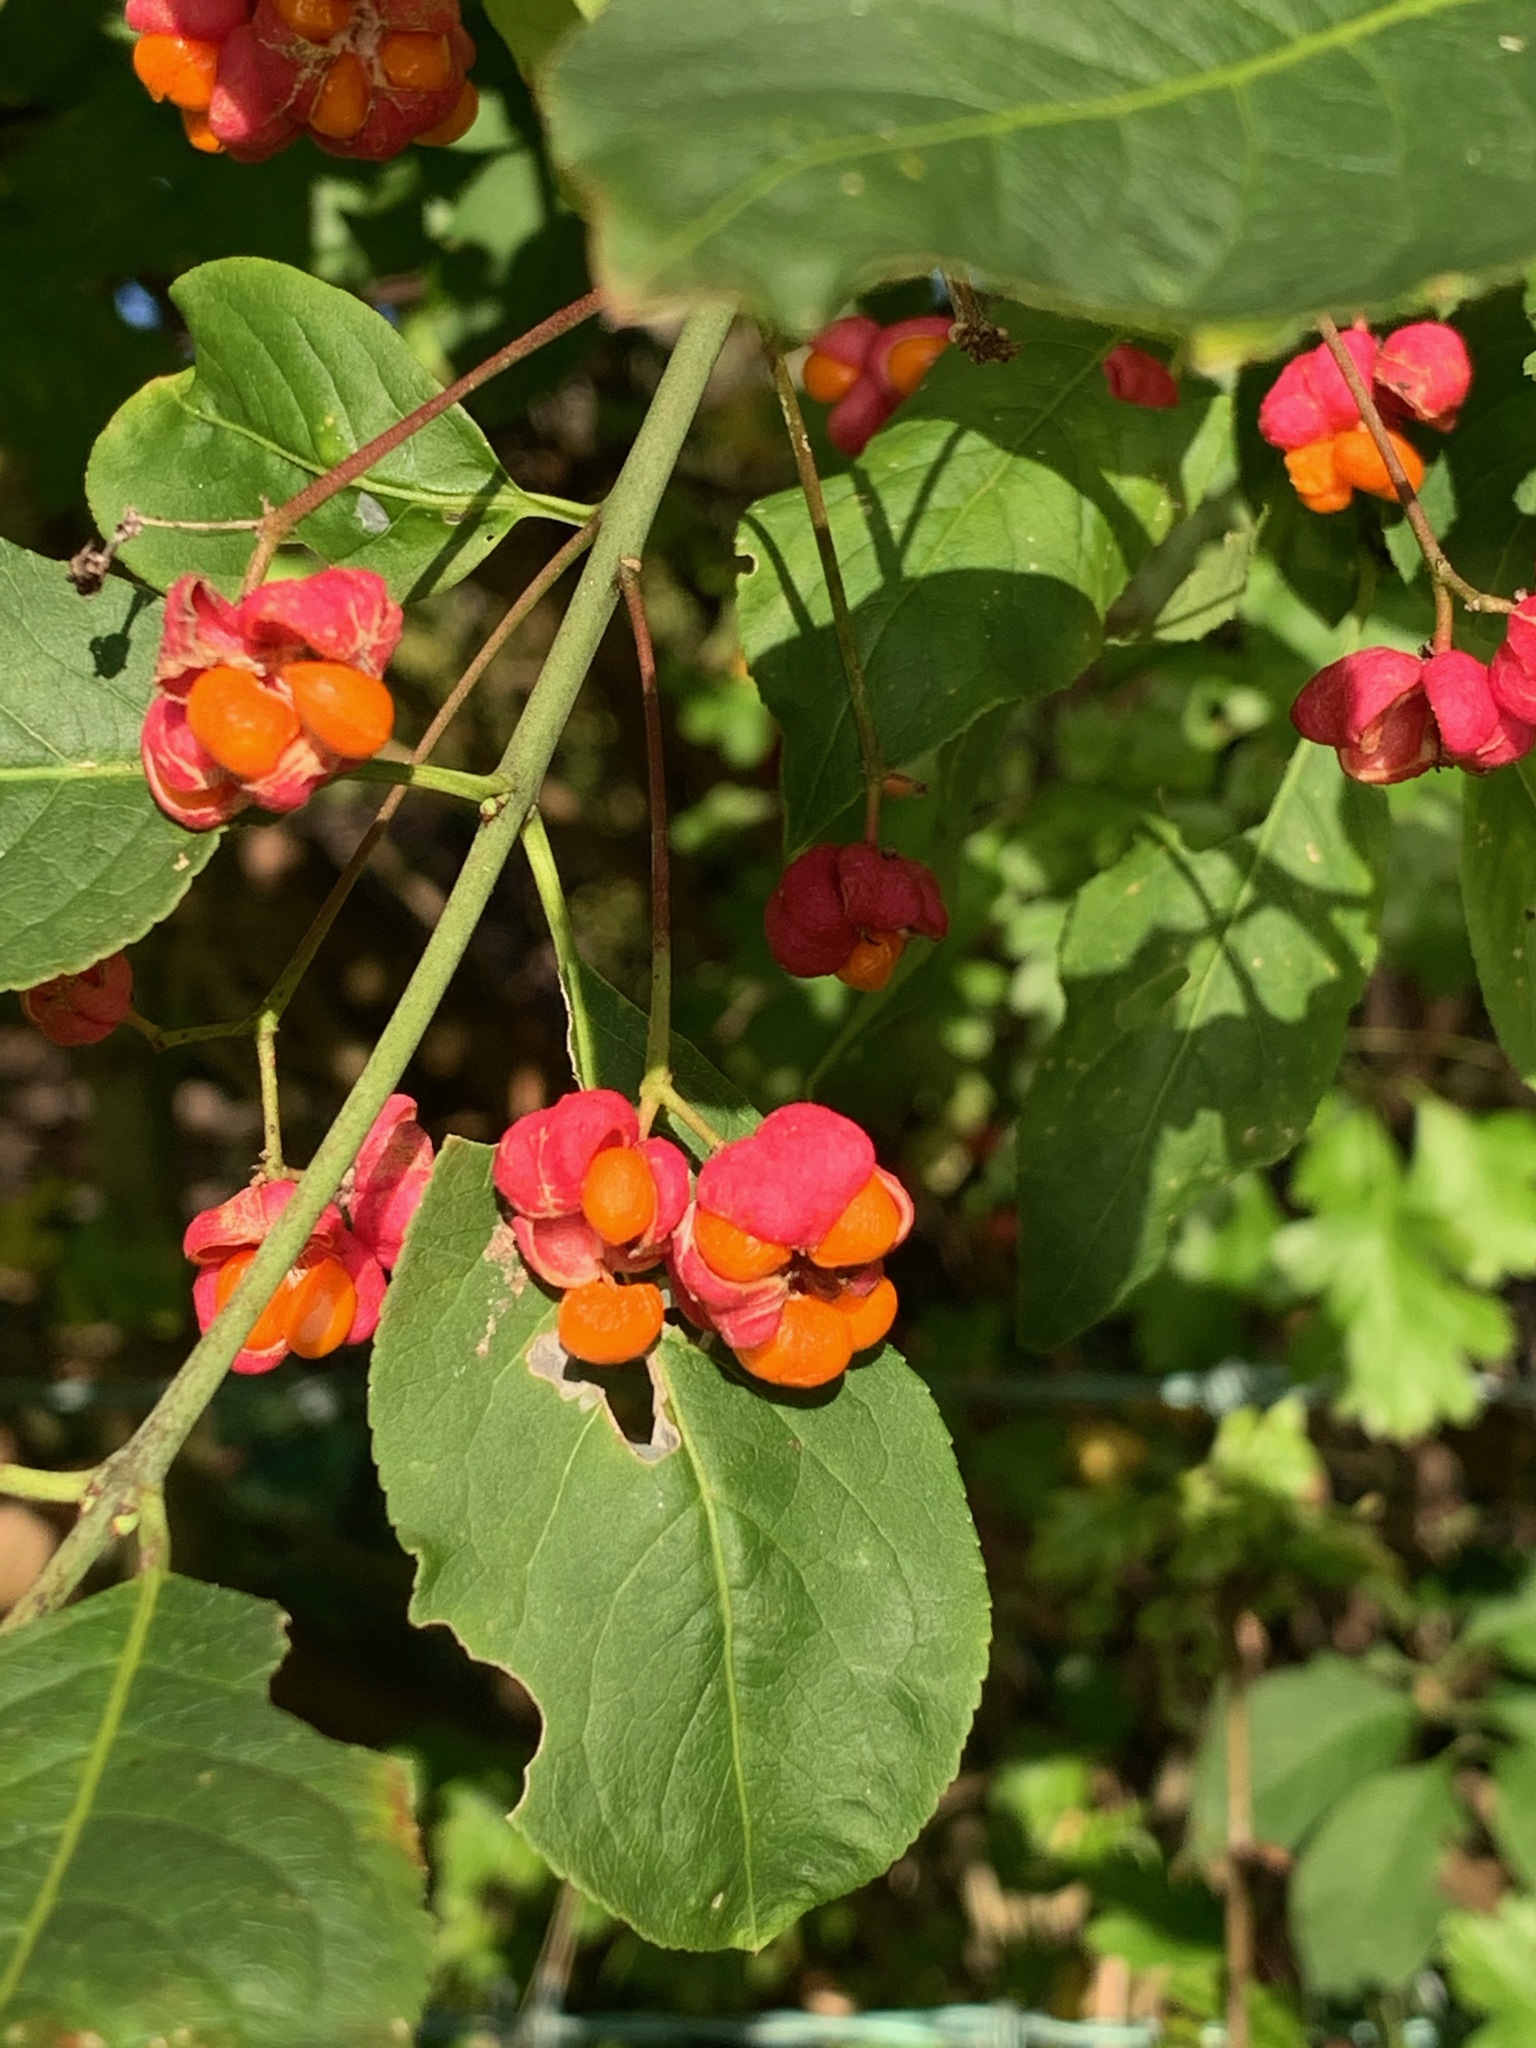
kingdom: Plantae
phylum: Tracheophyta
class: Magnoliopsida
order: Celastrales
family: Celastraceae
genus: Euonymus
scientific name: Euonymus europaeus
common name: Spindle
